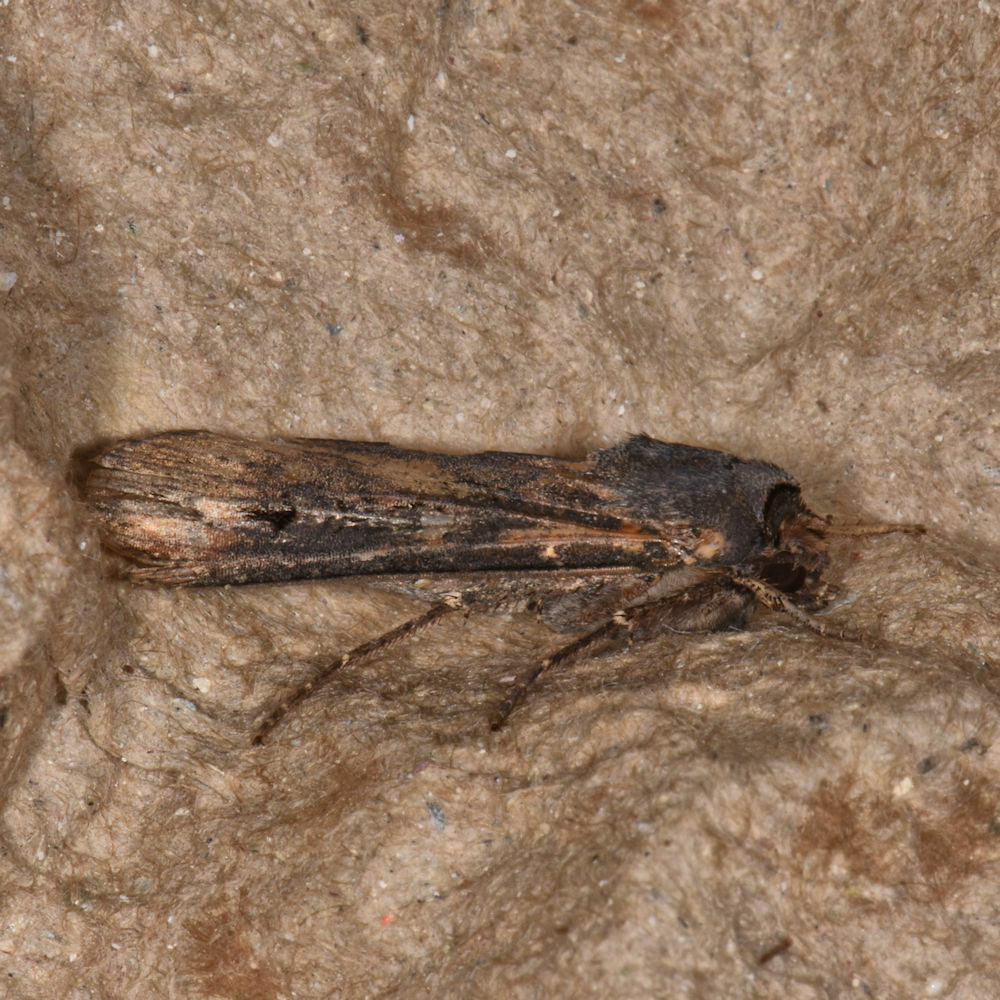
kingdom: Animalia
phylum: Arthropoda
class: Insecta
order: Lepidoptera
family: Noctuidae
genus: Agrotis
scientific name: Agrotis ipsilon
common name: Dark sword-grass
